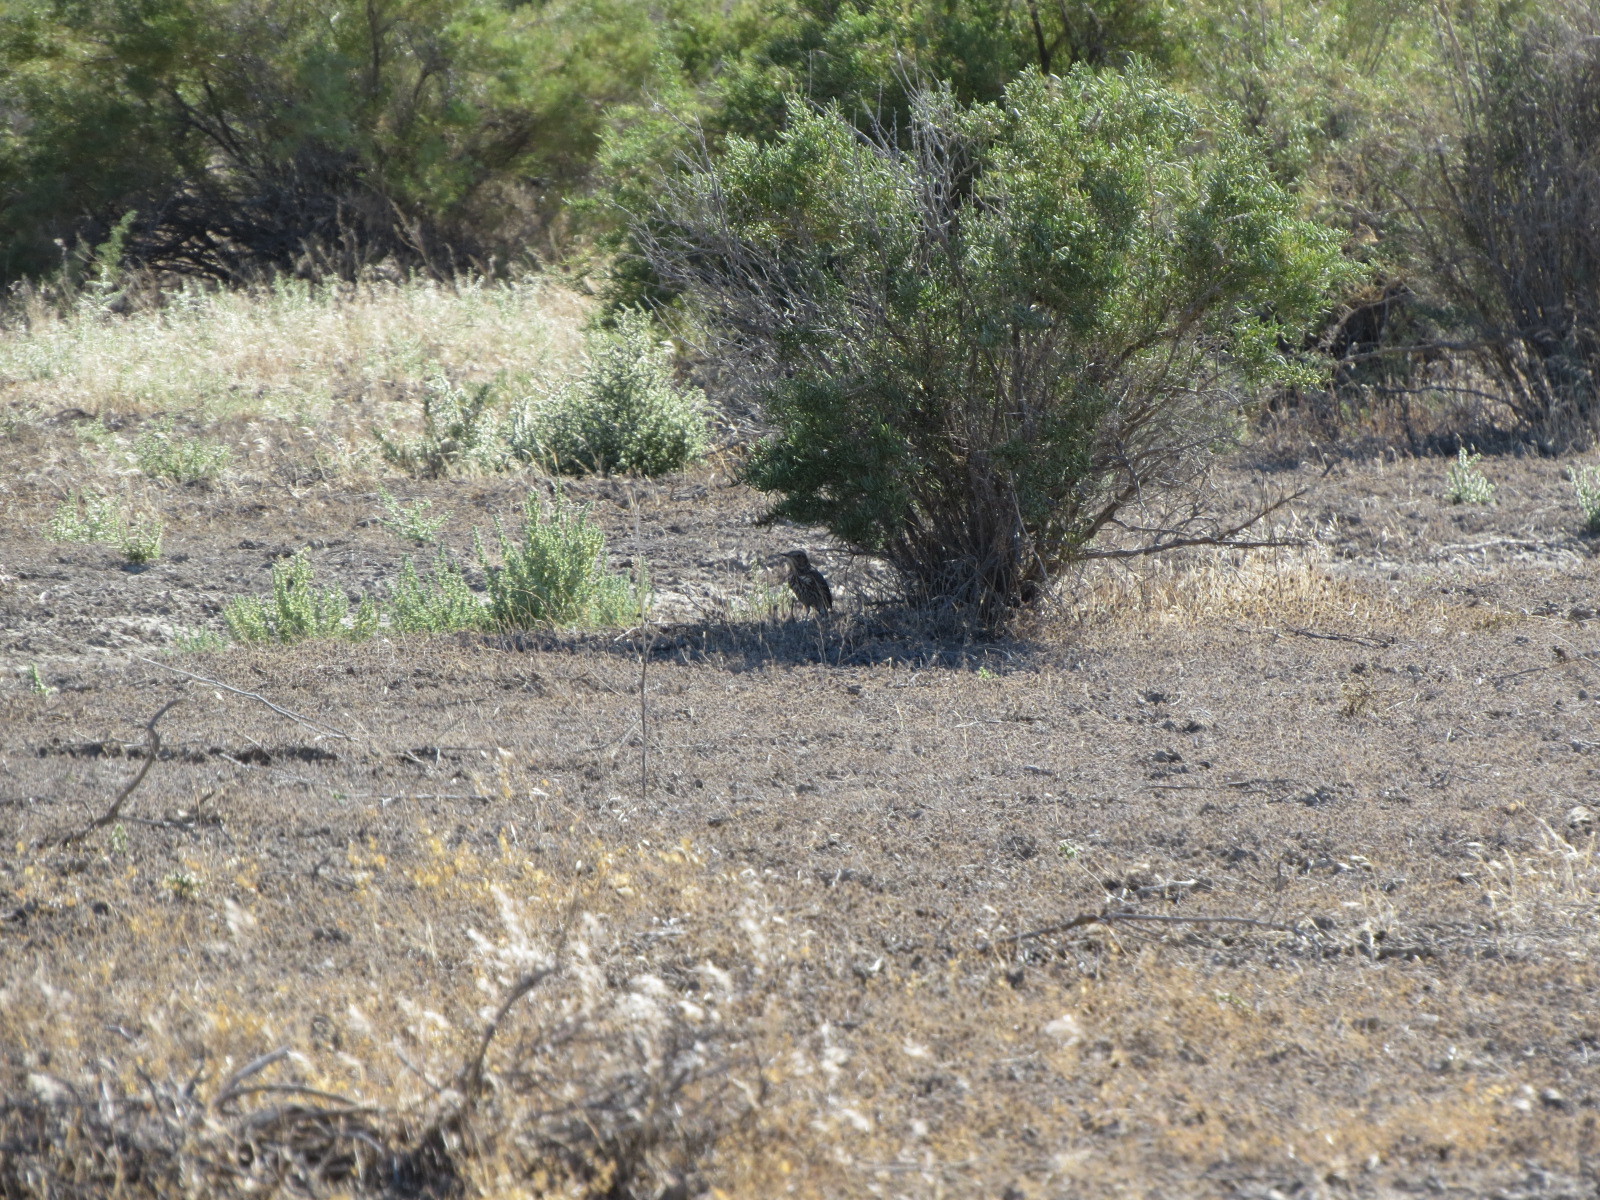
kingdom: Animalia
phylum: Chordata
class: Aves
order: Passeriformes
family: Mimidae
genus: Oreoscoptes
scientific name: Oreoscoptes montanus
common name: Sage thrasher
